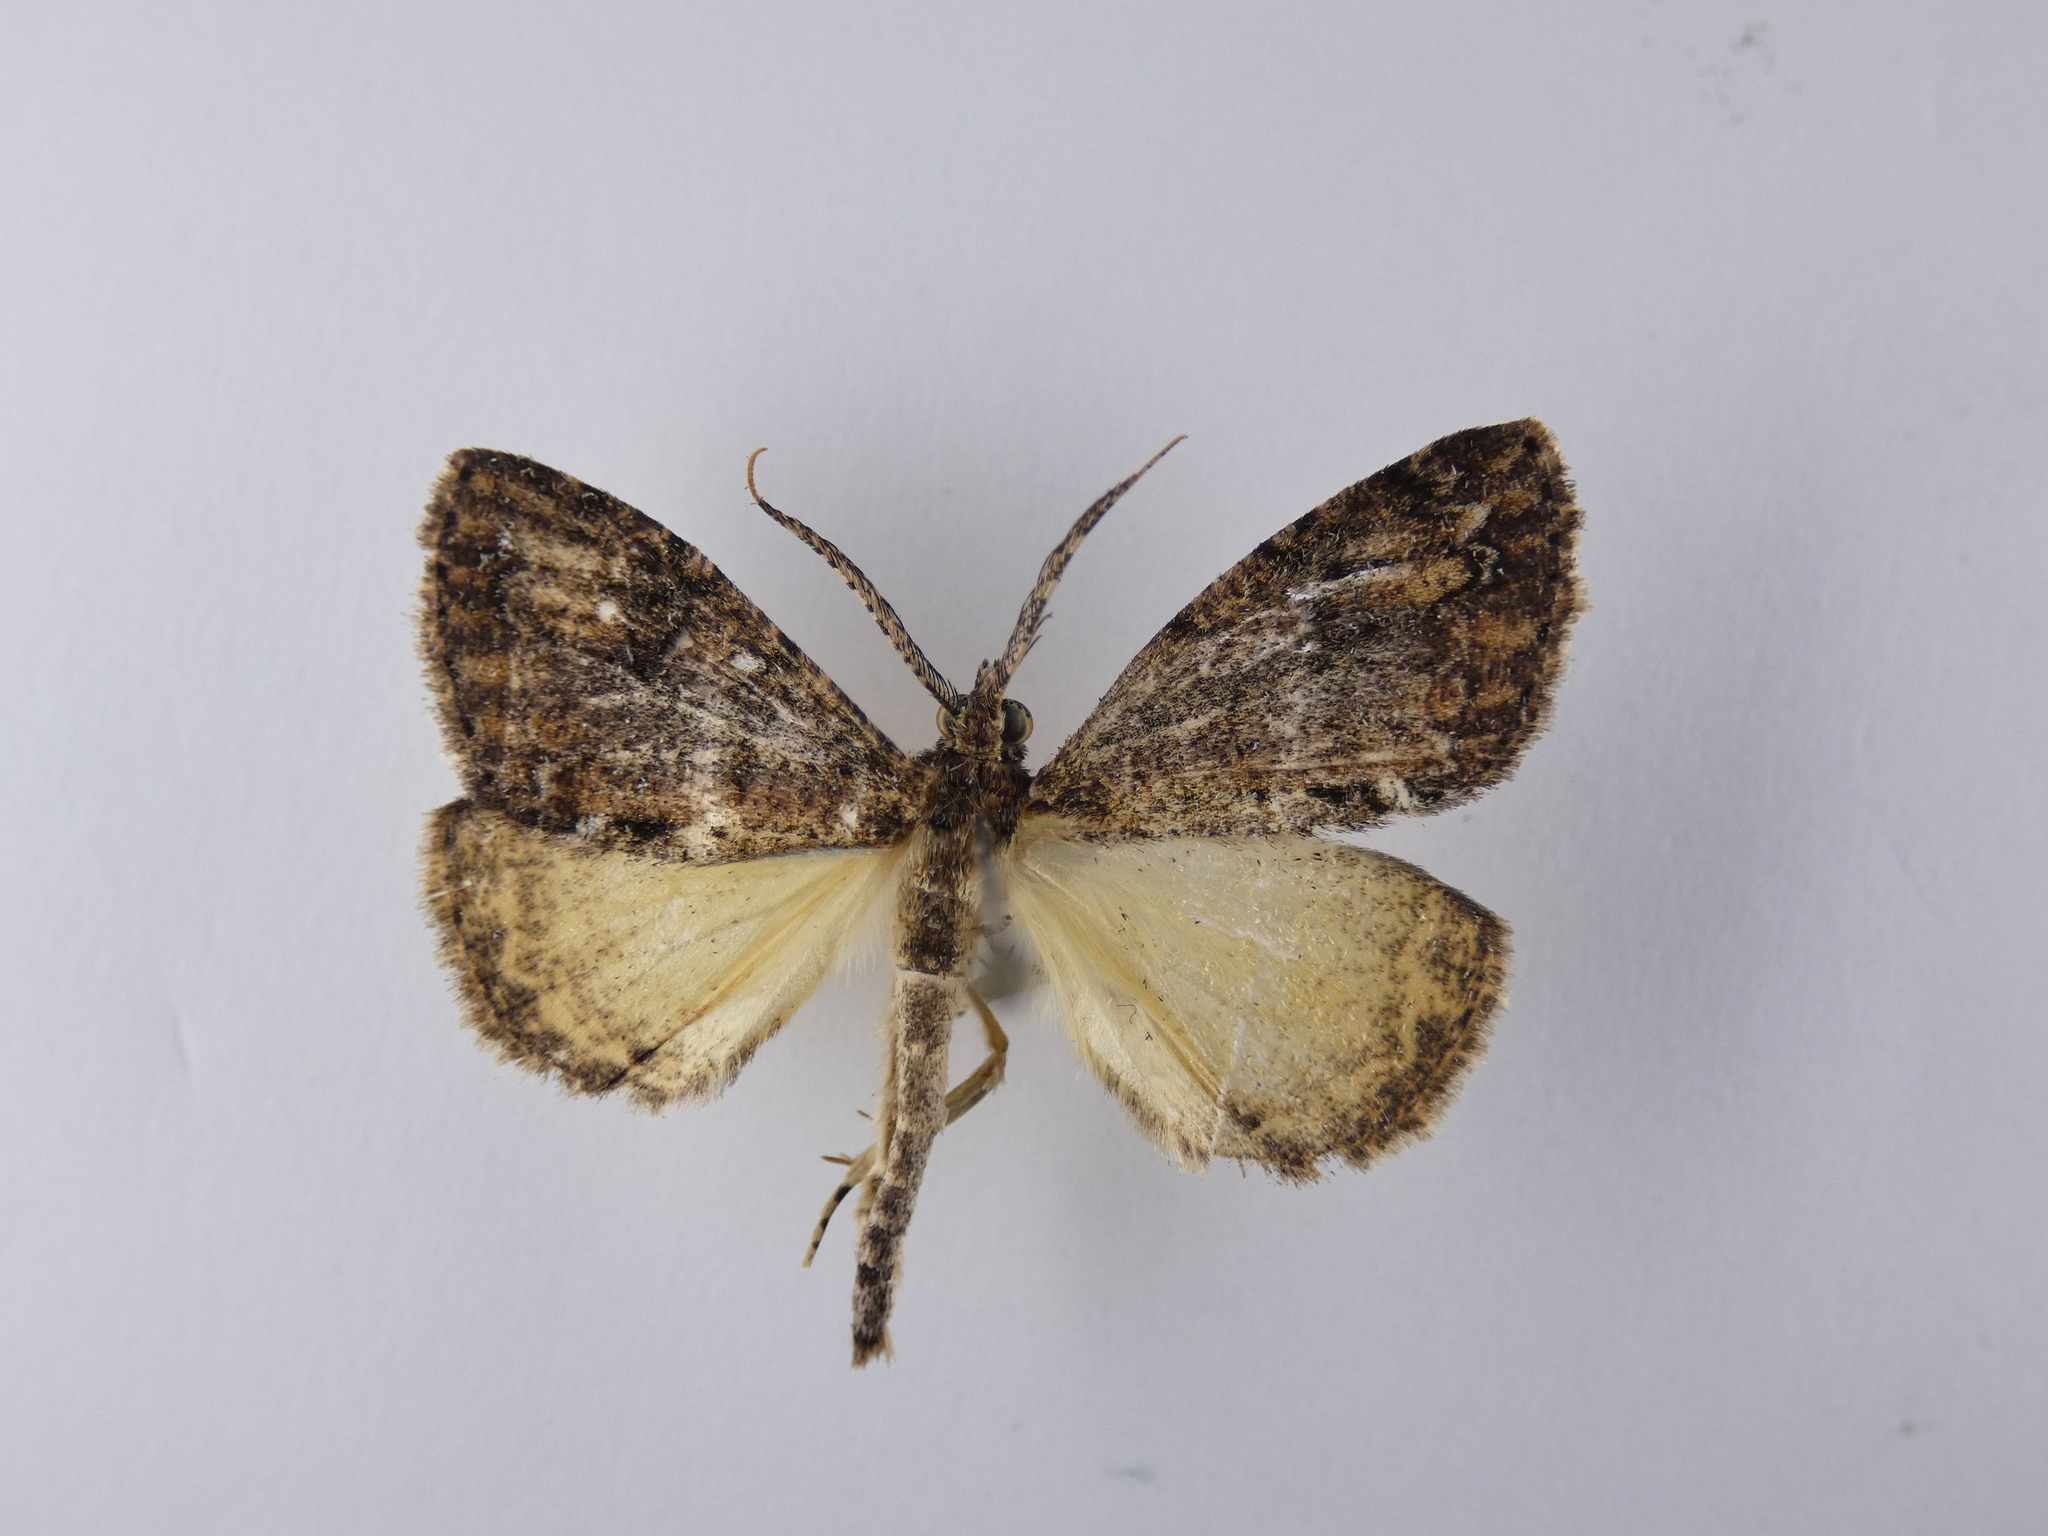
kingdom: Animalia
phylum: Arthropoda
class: Insecta
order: Lepidoptera
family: Geometridae
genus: Pseudocoremia
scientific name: Pseudocoremia suavis
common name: Common forest looper
